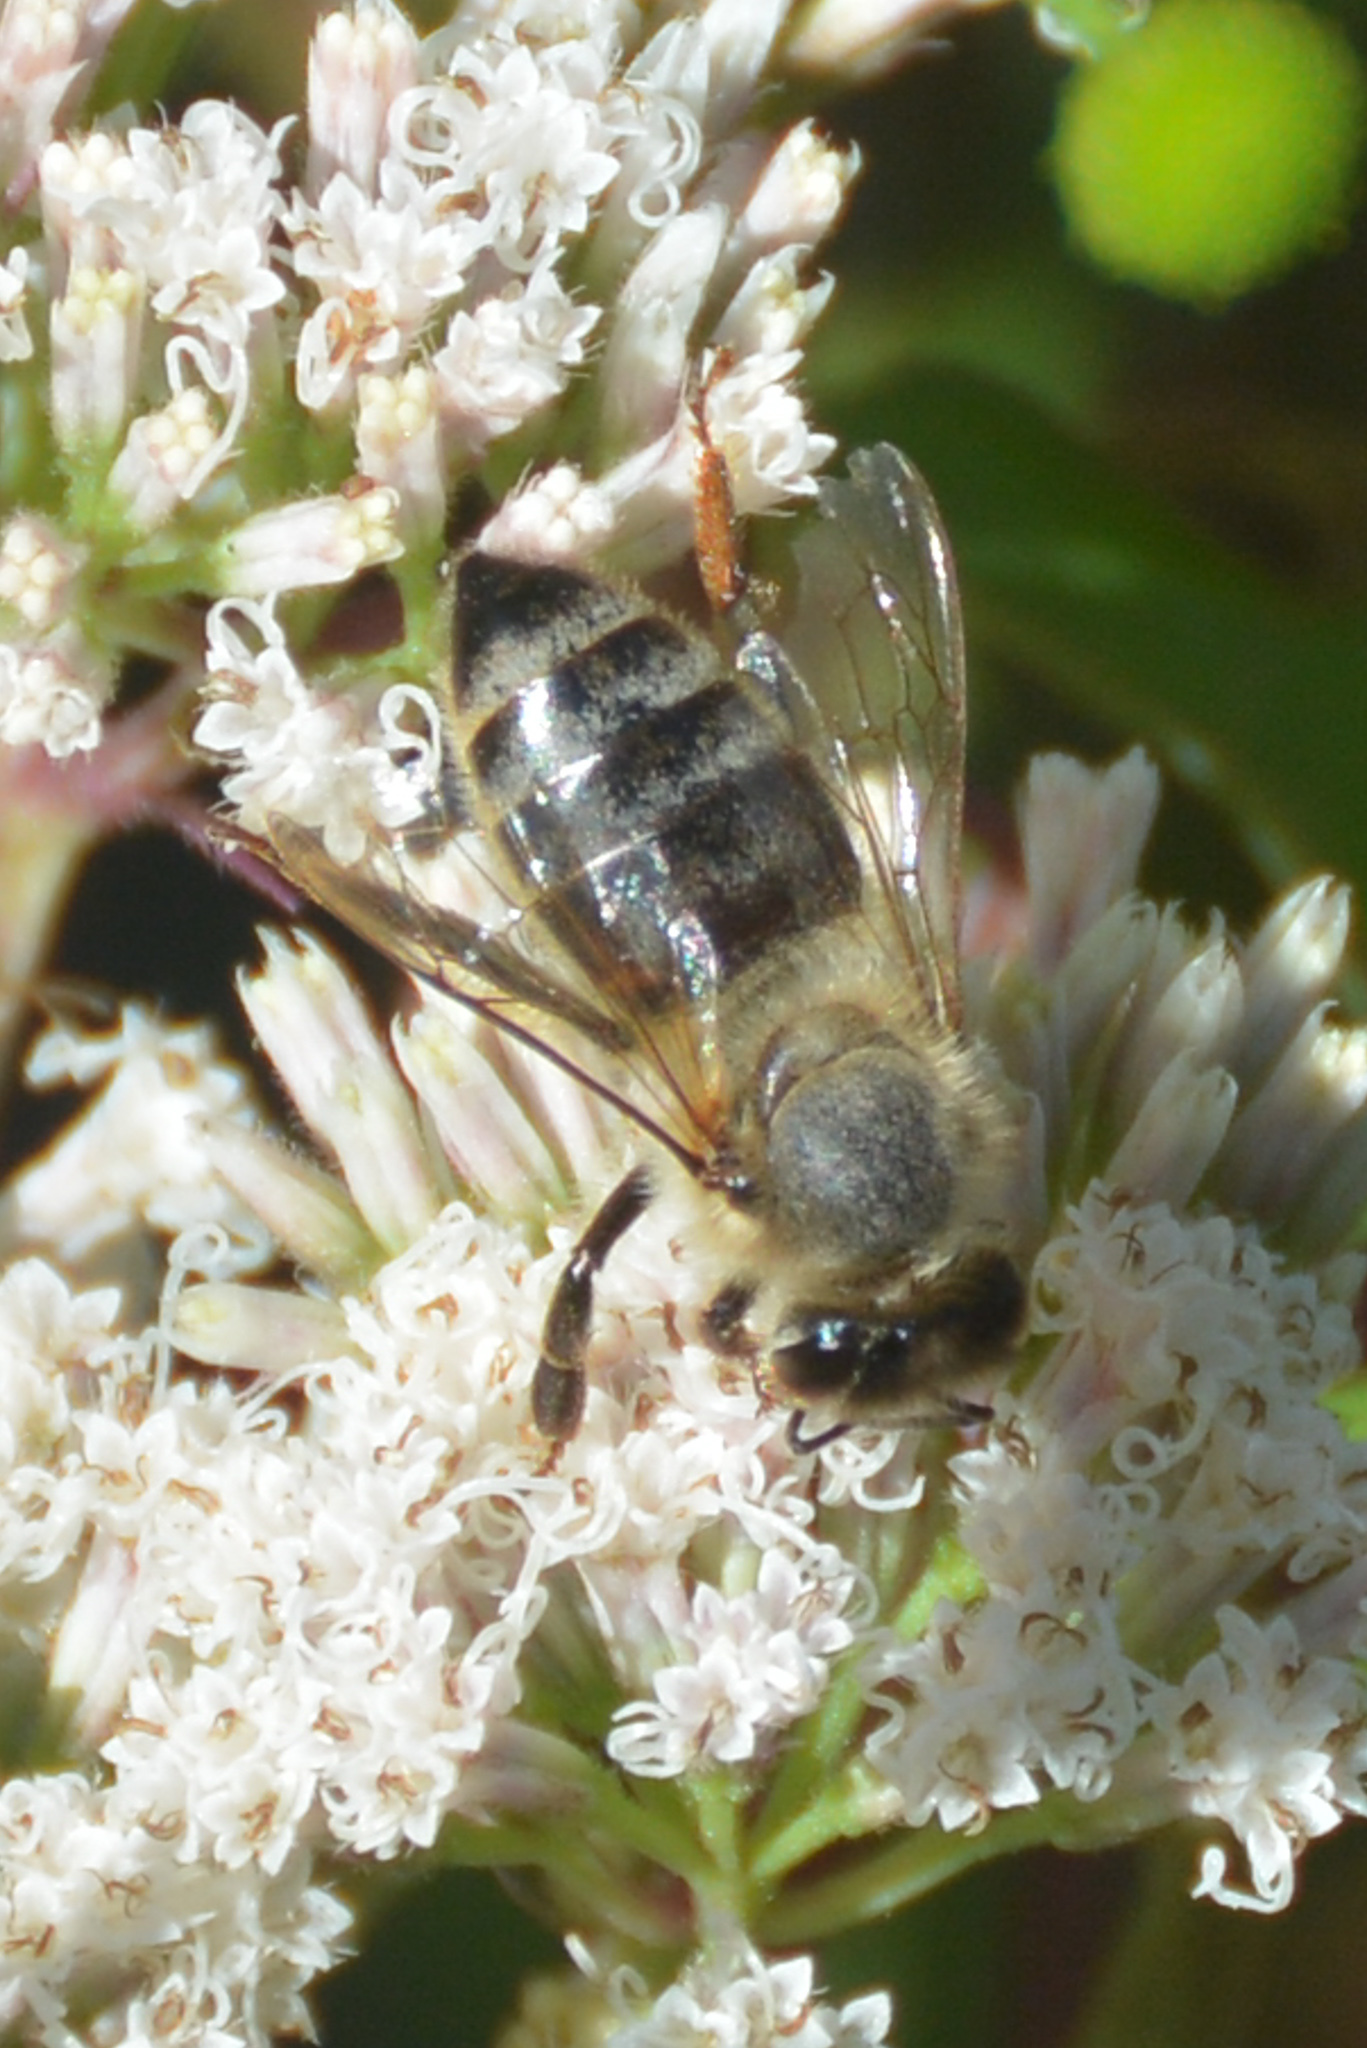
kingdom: Animalia
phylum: Arthropoda
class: Insecta
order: Hymenoptera
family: Apidae
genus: Apis
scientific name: Apis mellifera
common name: Honey bee
